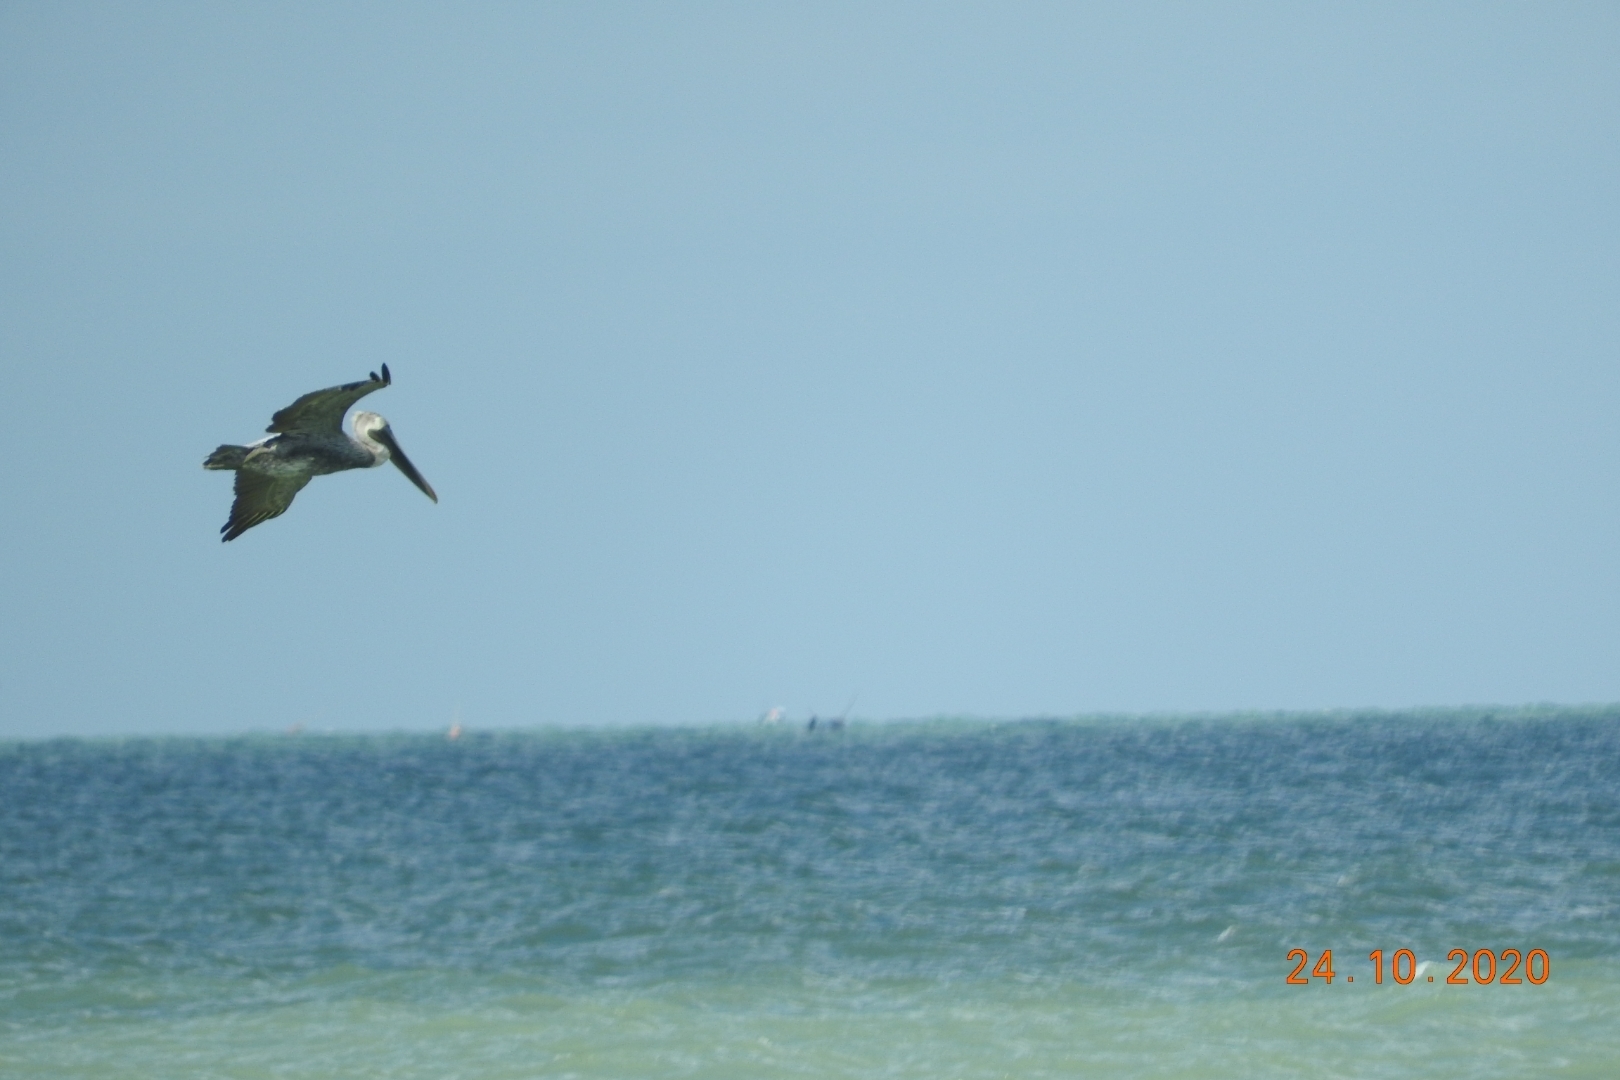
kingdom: Animalia
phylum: Chordata
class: Aves
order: Pelecaniformes
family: Pelecanidae
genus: Pelecanus
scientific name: Pelecanus occidentalis
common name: Brown pelican
